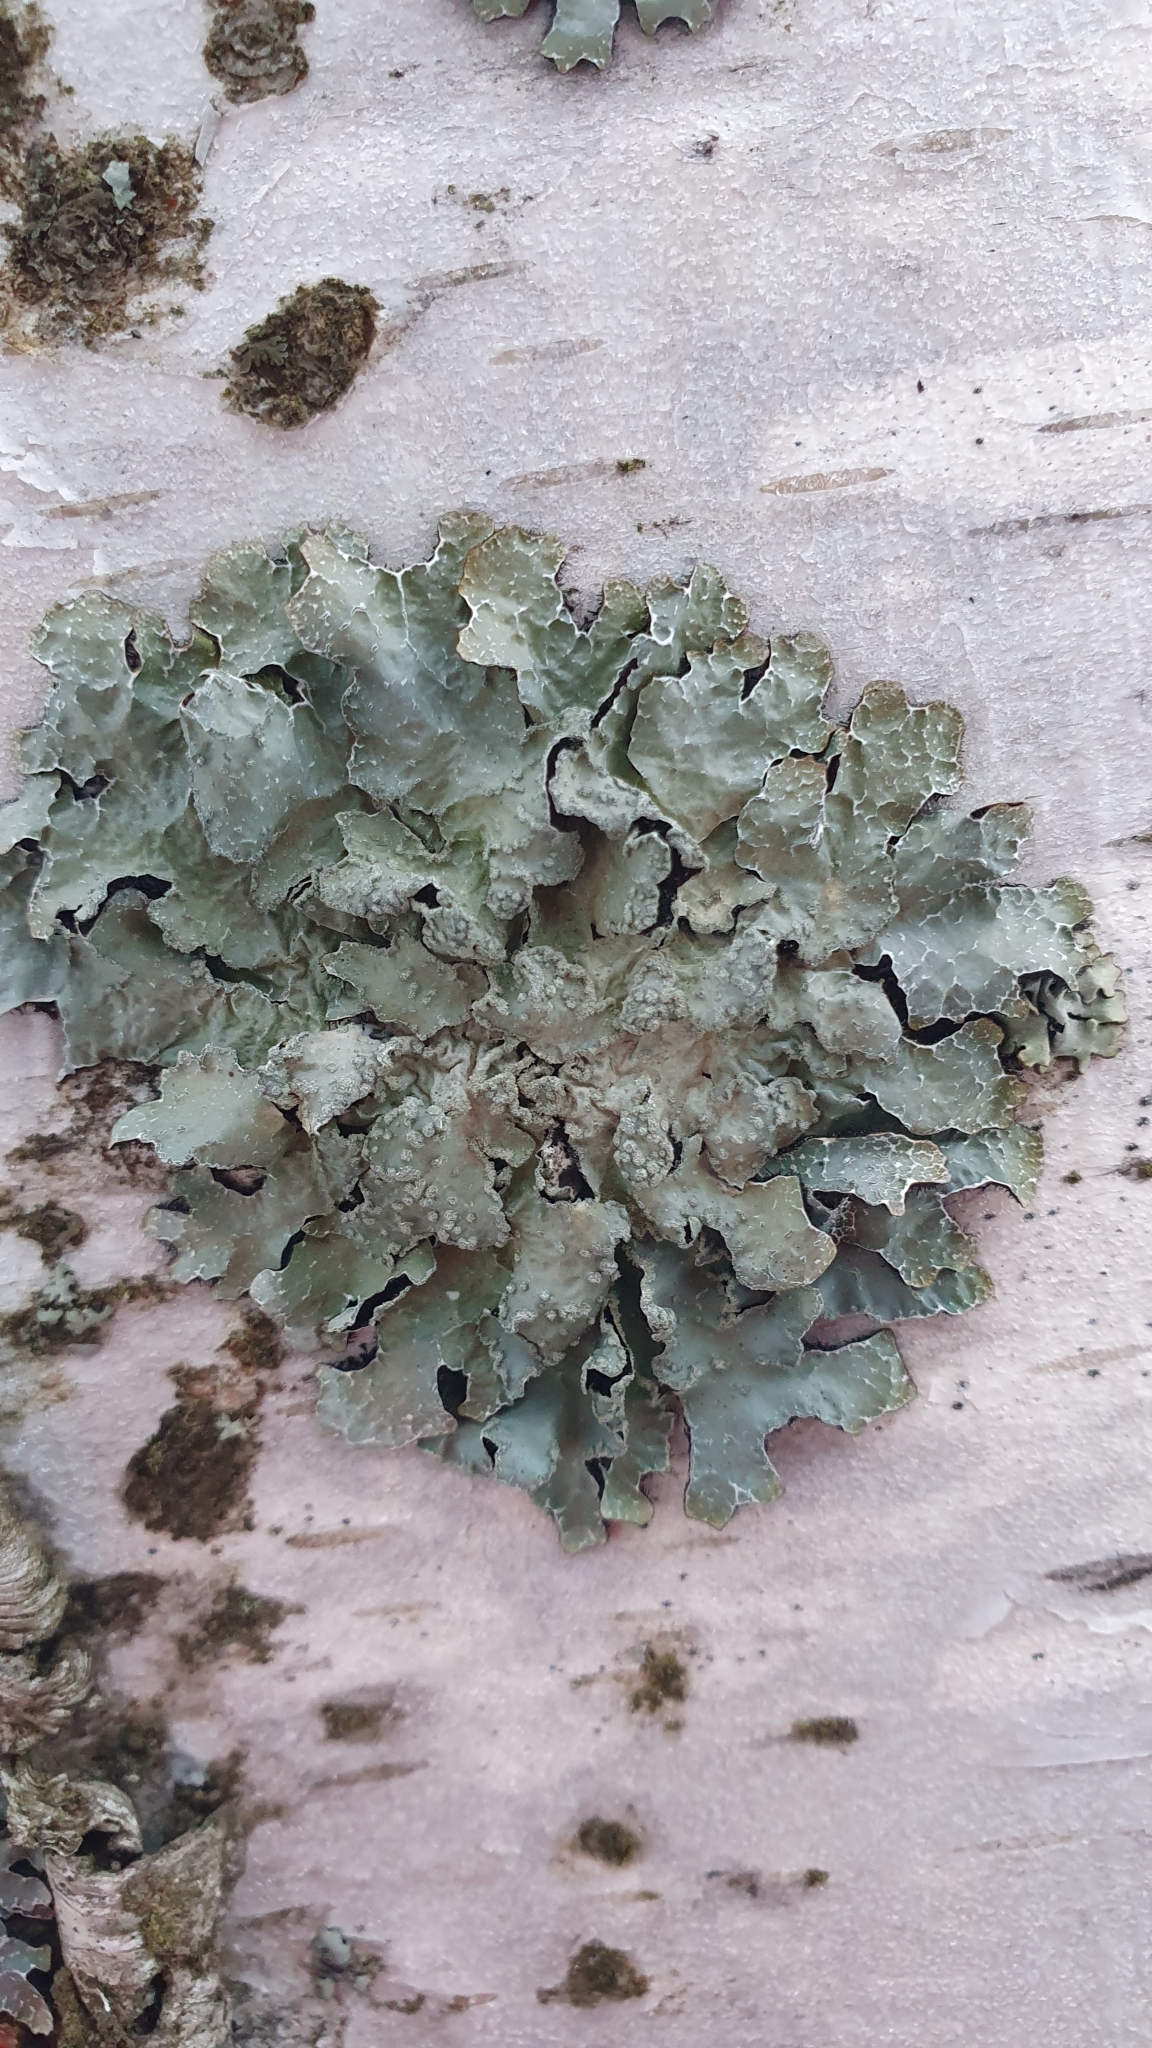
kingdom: Fungi
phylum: Ascomycota
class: Lecanoromycetes
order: Lecanorales
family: Parmeliaceae
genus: Parmelia
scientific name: Parmelia sulcata
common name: Netted shield lichen
